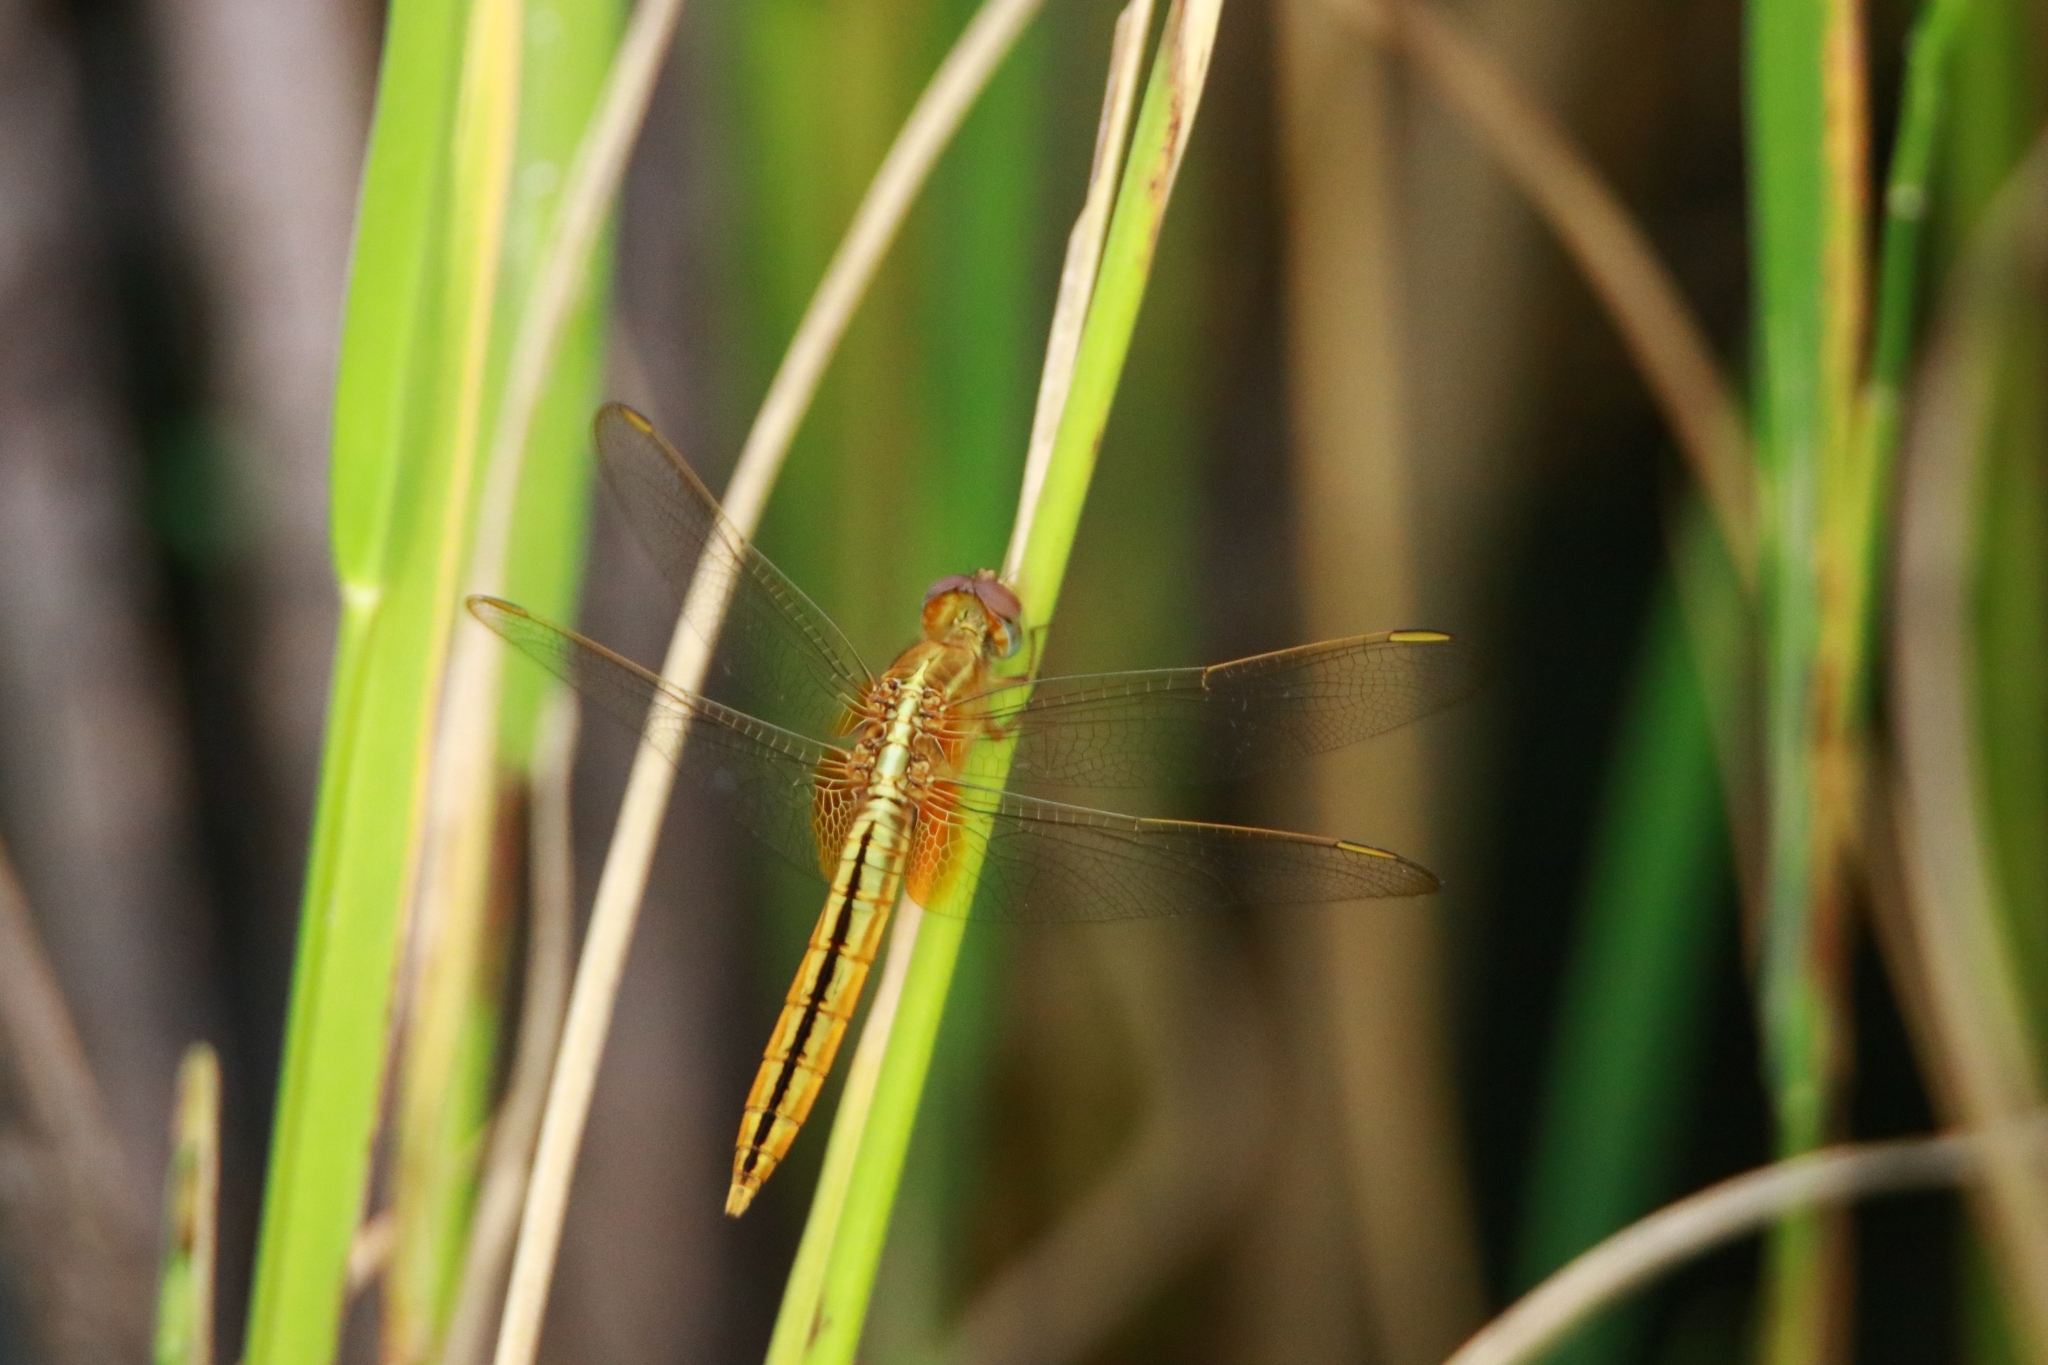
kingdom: Animalia
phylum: Arthropoda
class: Insecta
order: Odonata
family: Libellulidae
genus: Crocothemis
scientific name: Crocothemis servilia
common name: Scarlet skimmer
